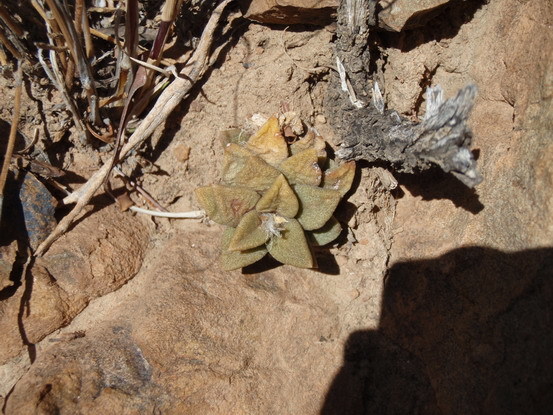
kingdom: Plantae
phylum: Tracheophyta
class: Magnoliopsida
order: Caryophyllales
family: Anacampserotaceae
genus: Anacampseros
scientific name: Anacampseros telephiastrum
